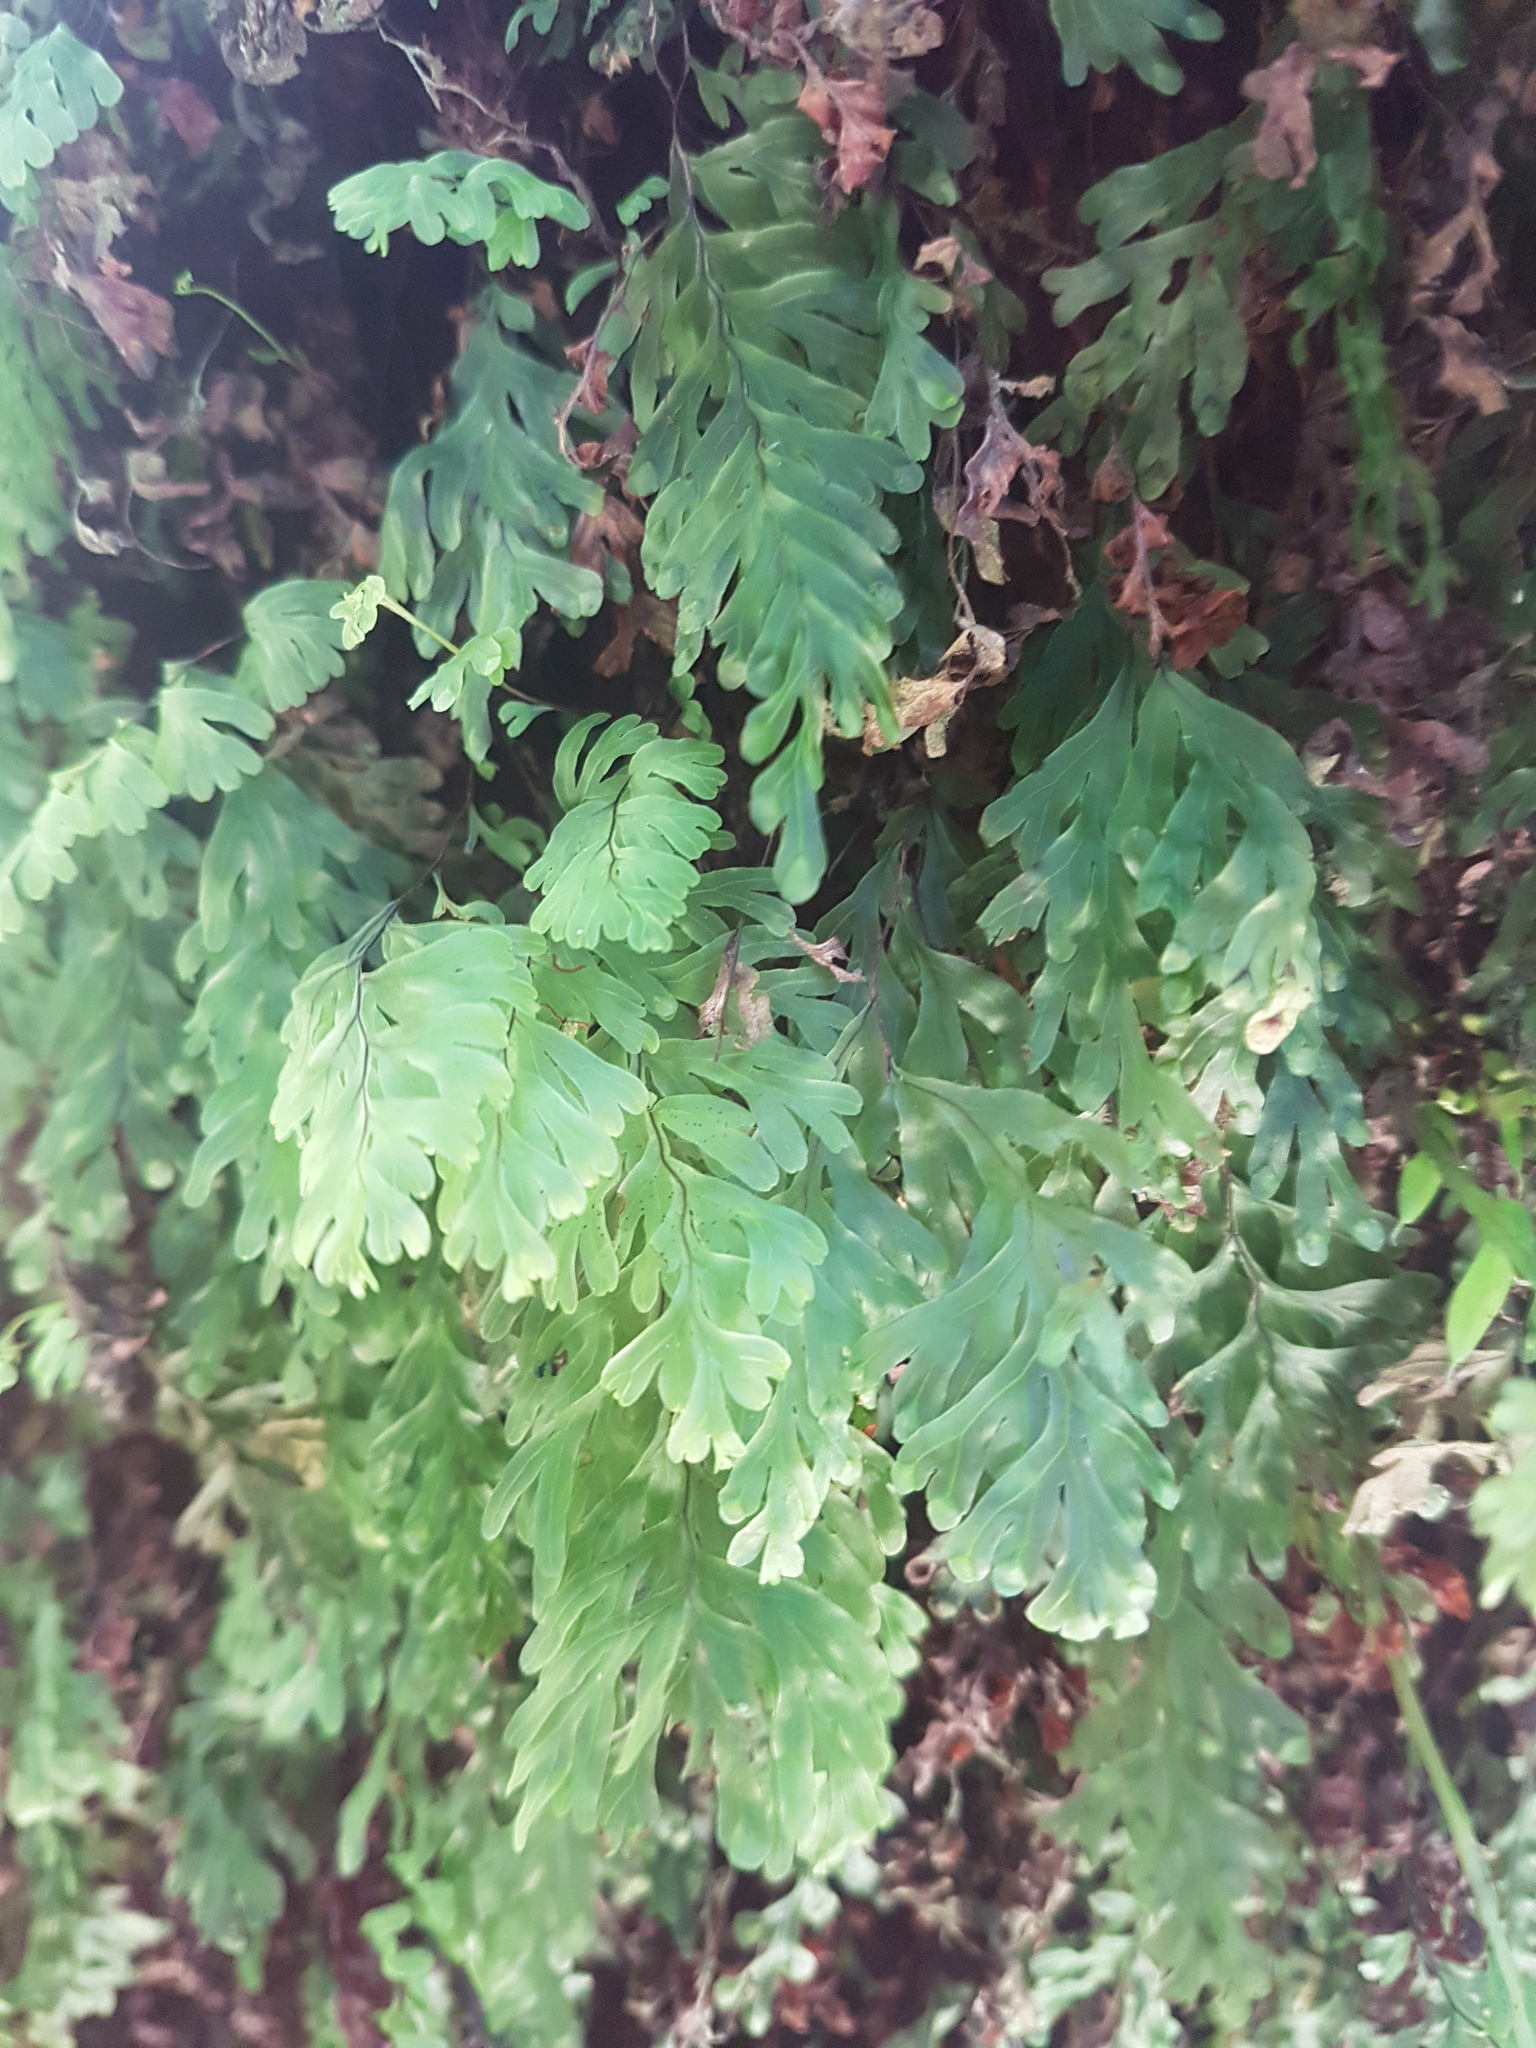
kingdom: Plantae
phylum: Tracheophyta
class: Polypodiopsida
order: Hymenophyllales
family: Hymenophyllaceae
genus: Hymenophyllum
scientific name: Hymenophyllum rarum
